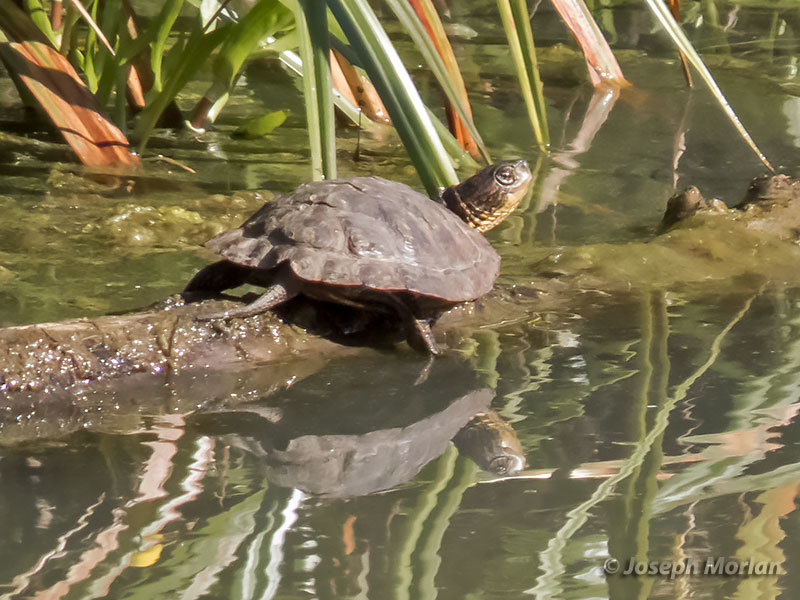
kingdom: Animalia
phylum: Chordata
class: Testudines
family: Emydidae
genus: Actinemys
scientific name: Actinemys marmorata
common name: Western pond turtle
